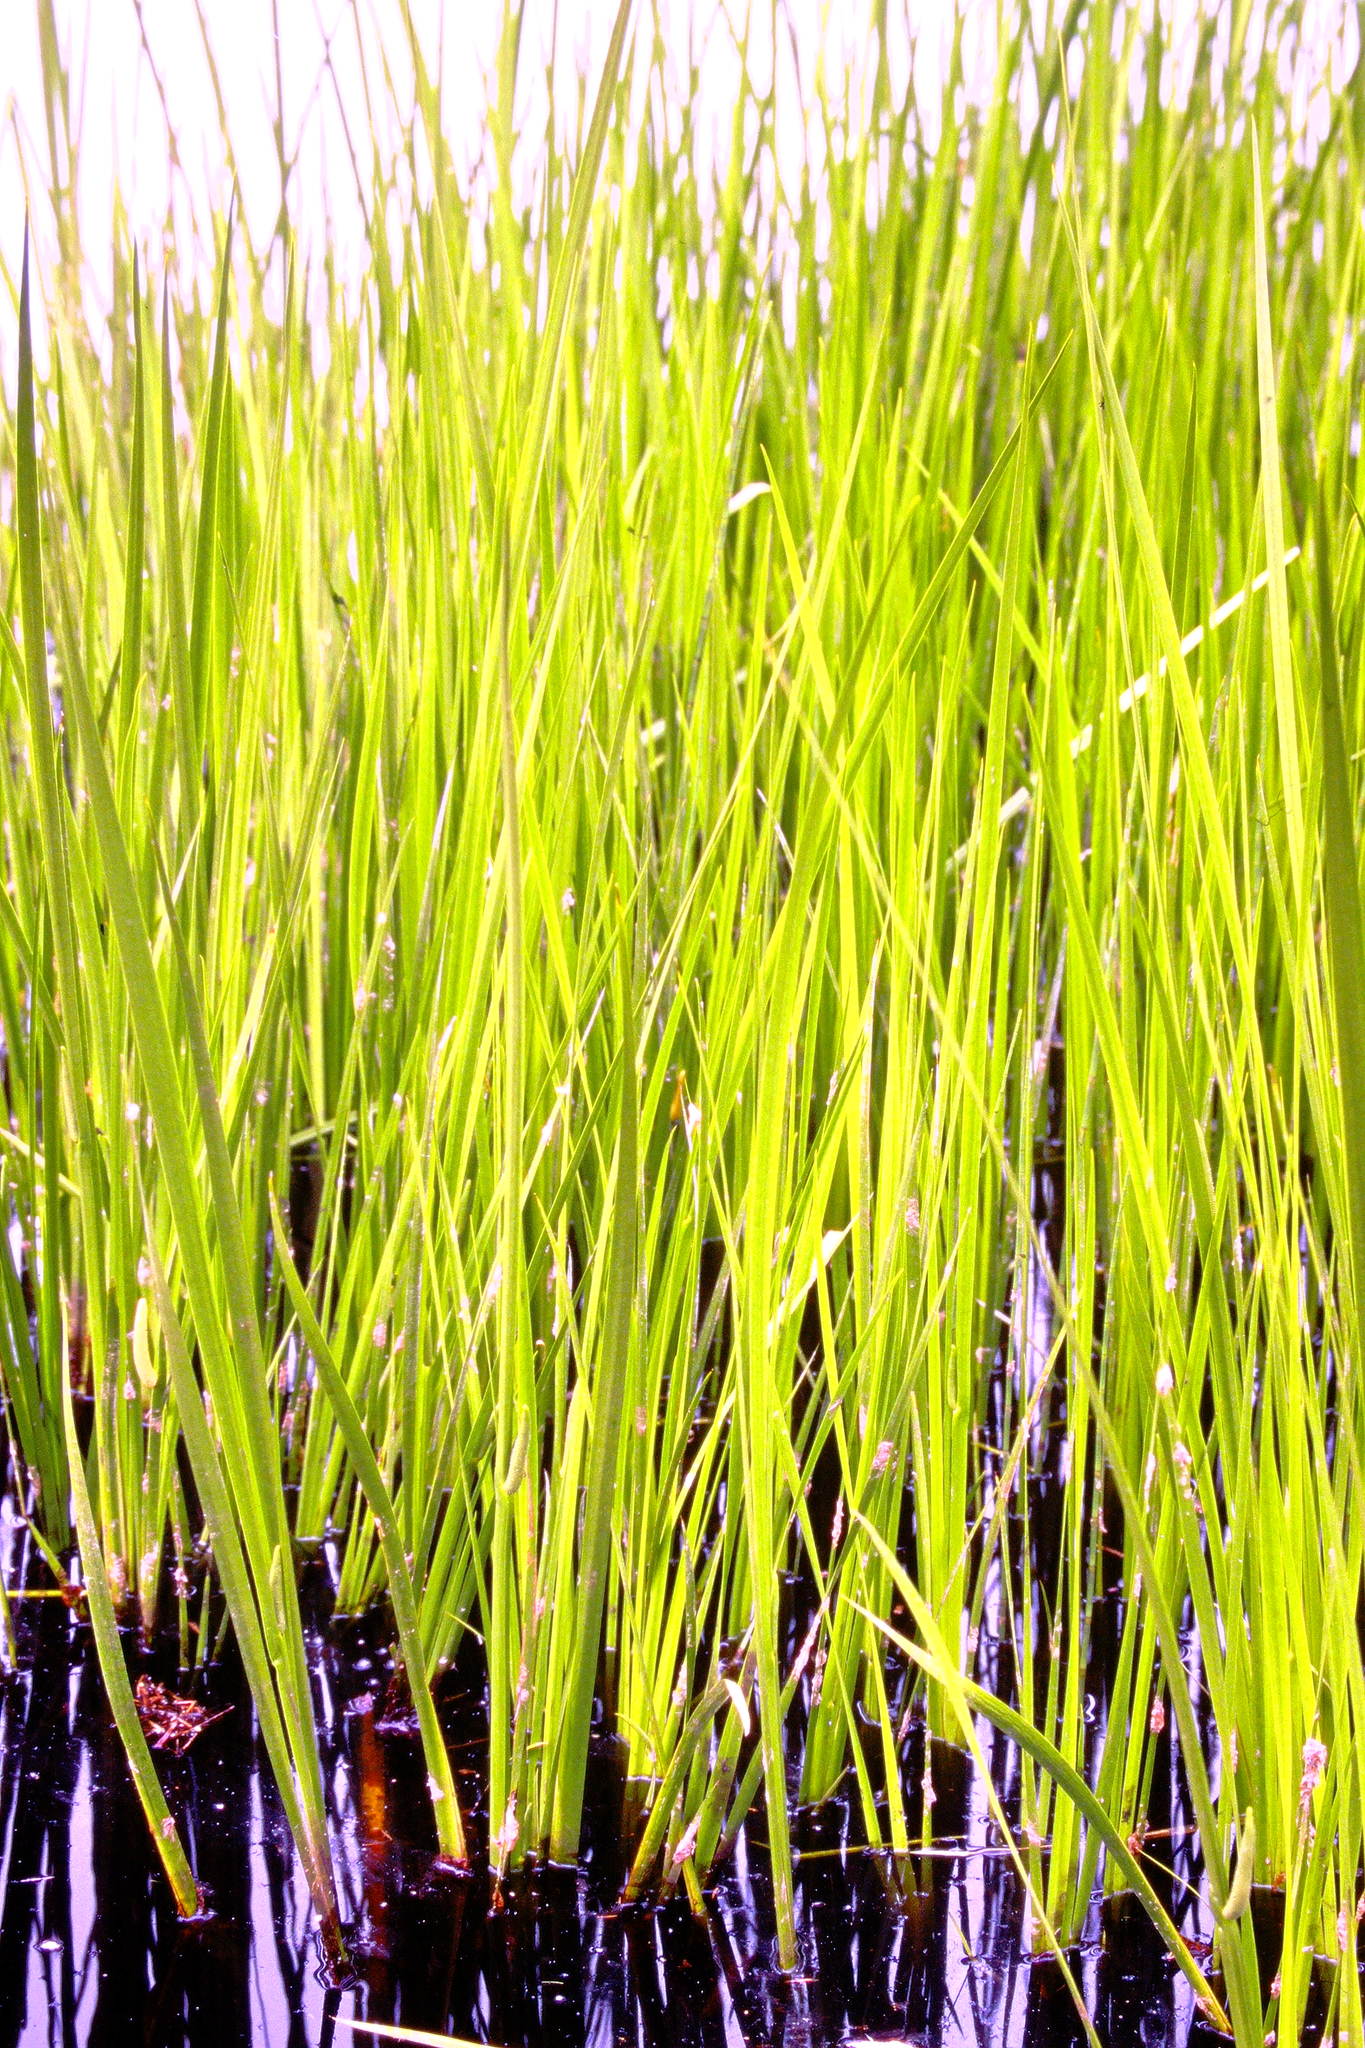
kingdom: Plantae
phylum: Tracheophyta
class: Liliopsida
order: Acorales
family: Acoraceae
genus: Acorus
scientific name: Acorus calamus
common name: Sweet-flag
